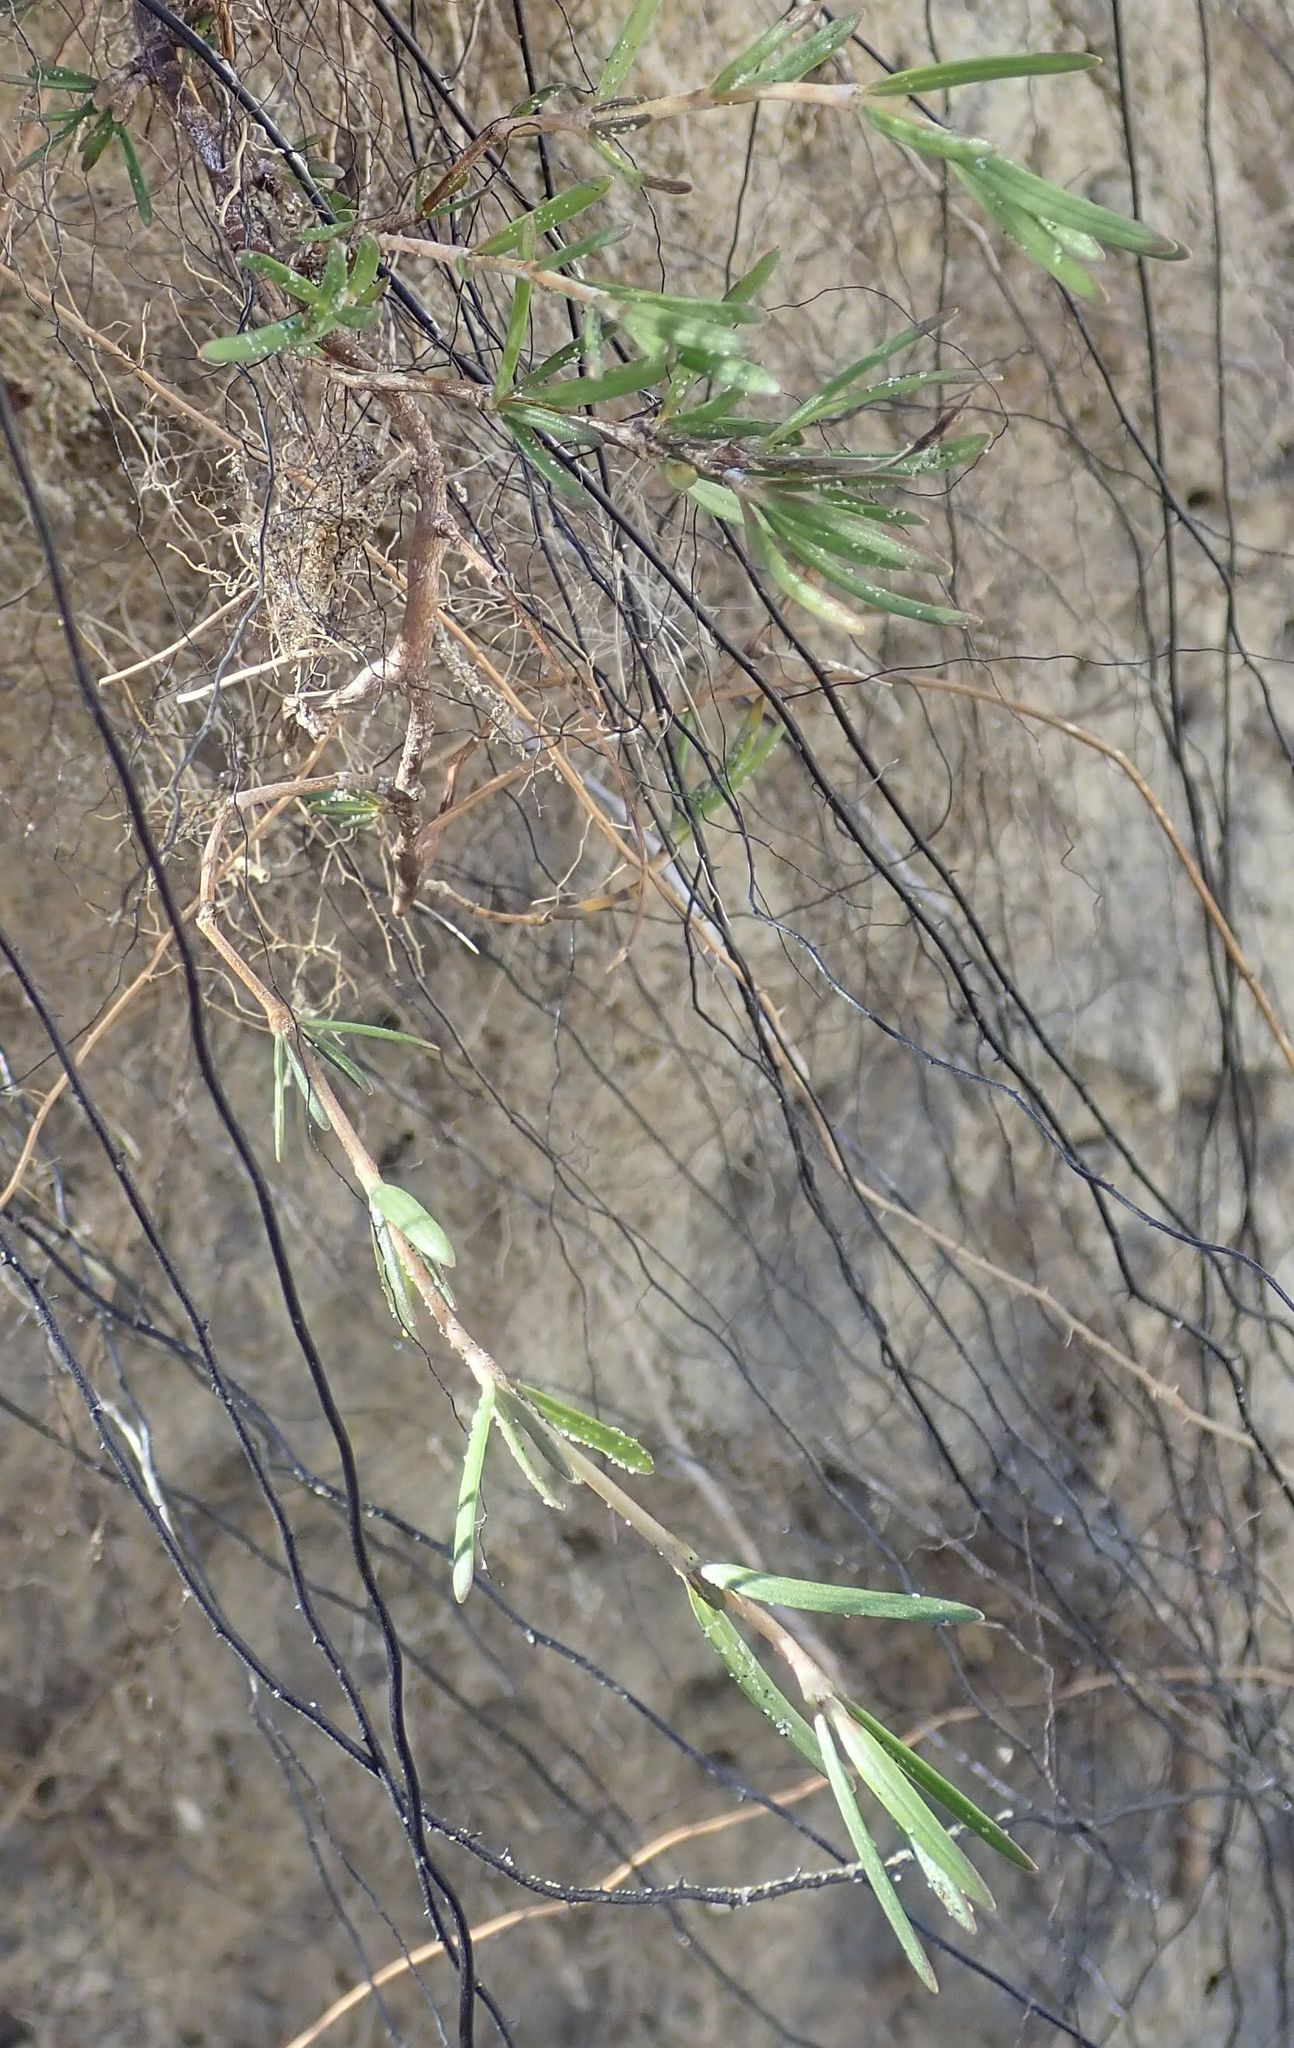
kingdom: Plantae
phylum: Tracheophyta
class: Magnoliopsida
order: Gentianales
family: Rubiaceae
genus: Coprosma
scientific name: Coprosma acerosa
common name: Sand coprosma
